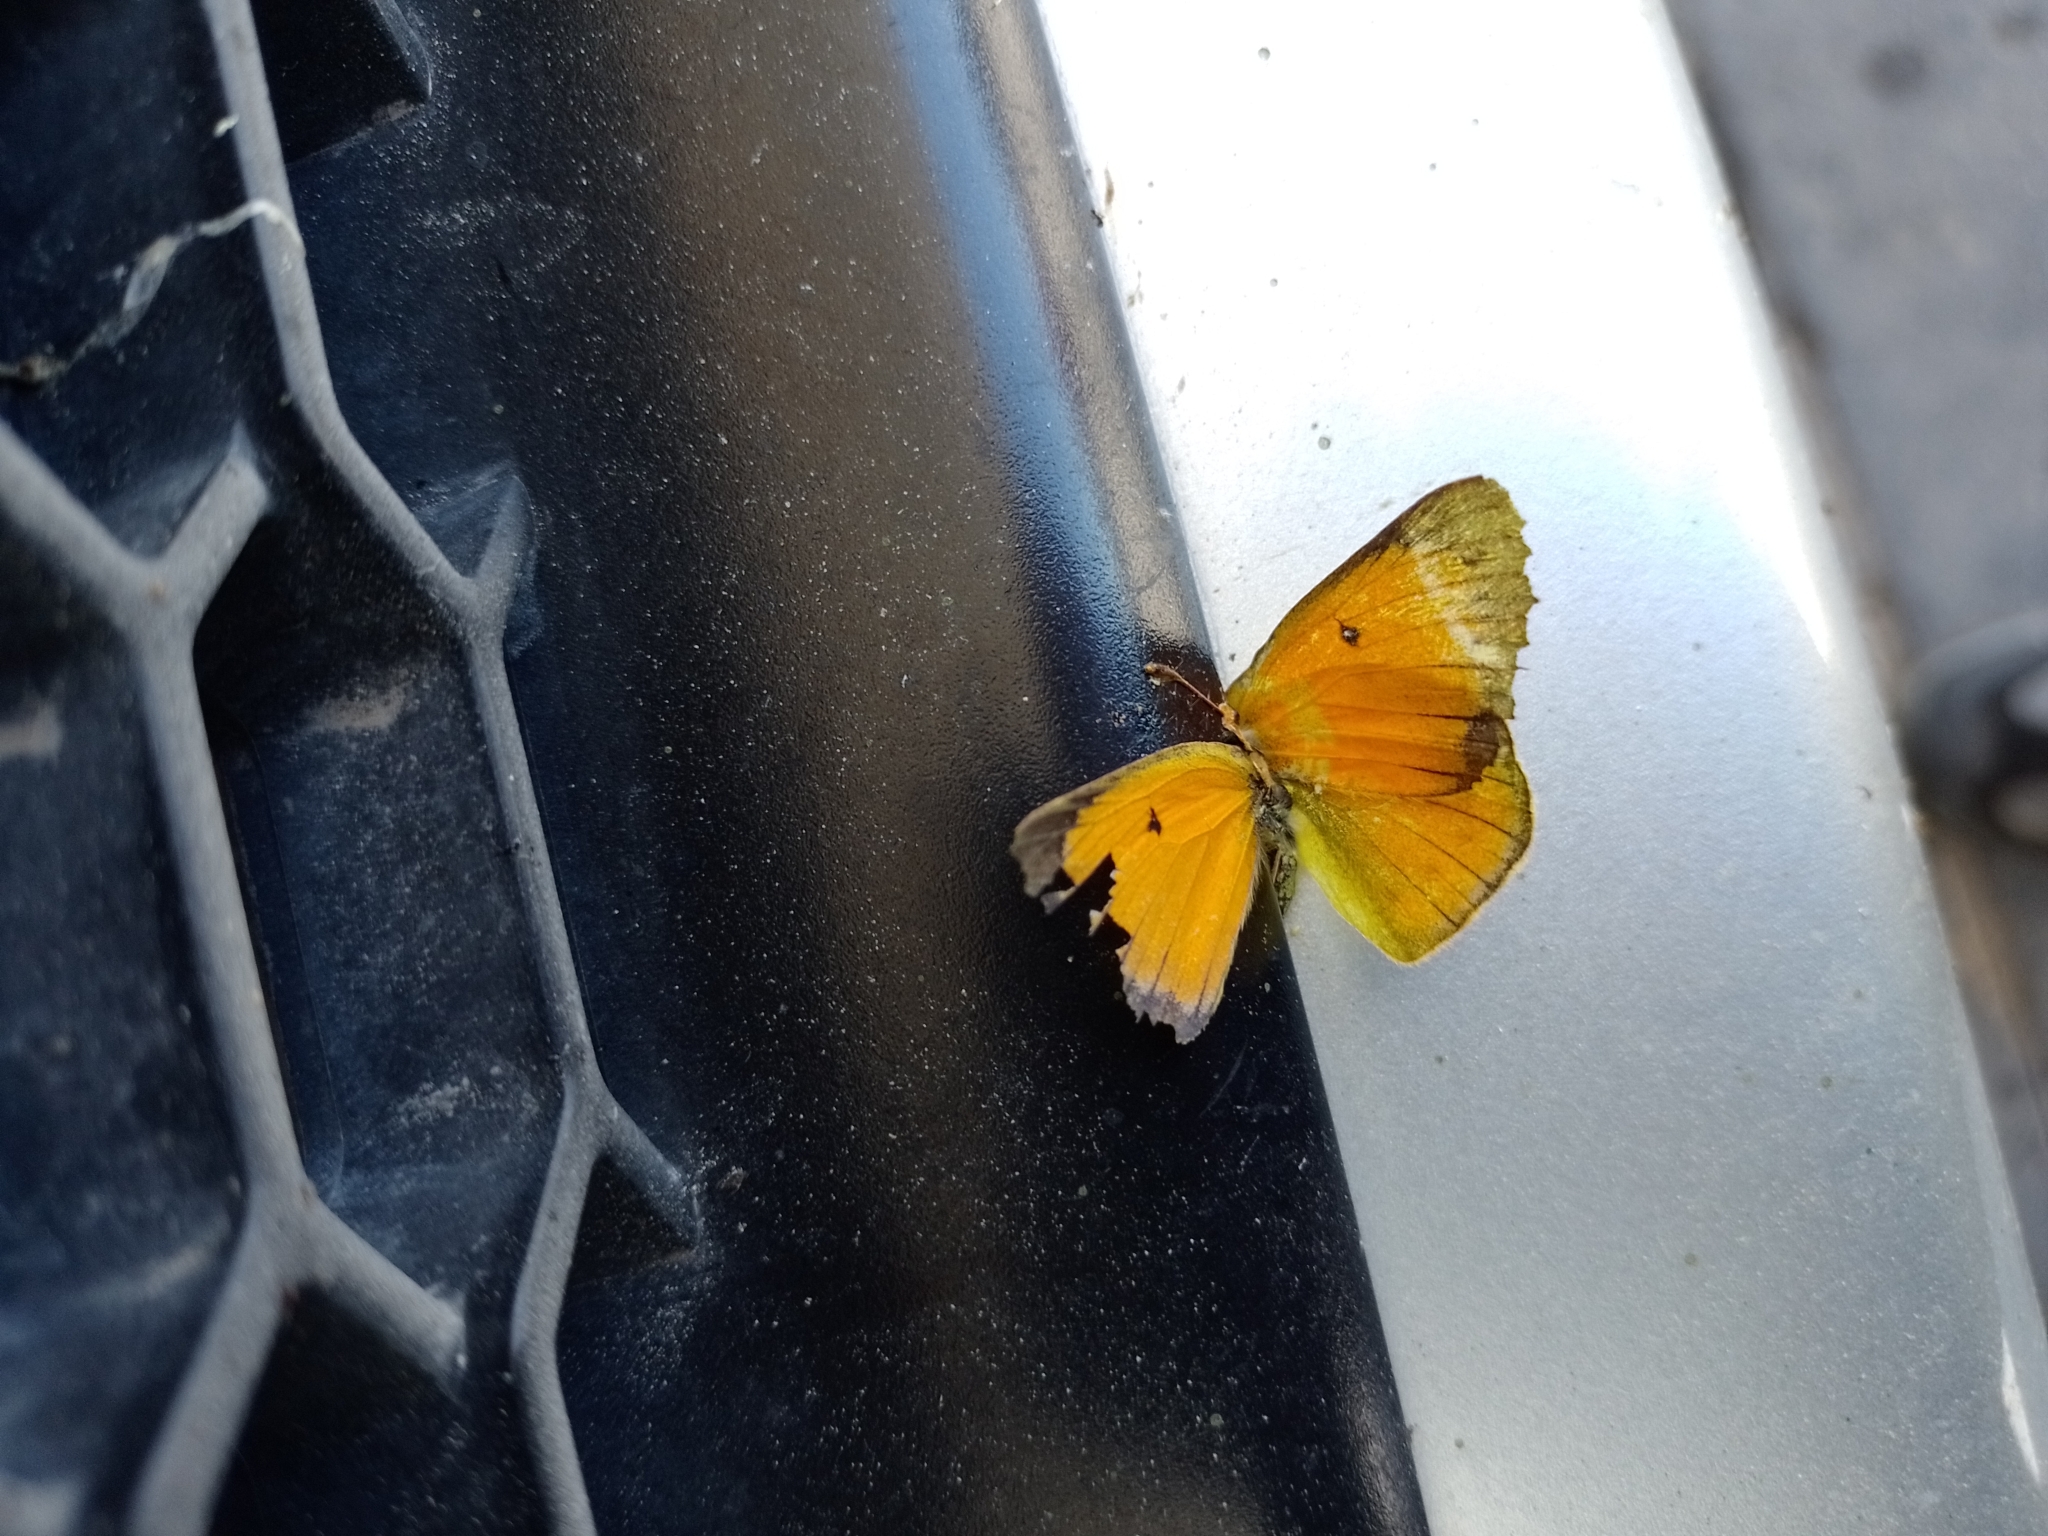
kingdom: Animalia
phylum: Arthropoda
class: Insecta
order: Lepidoptera
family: Pieridae
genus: Colias
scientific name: Colias lesbia
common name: Lesbia clouded yellow
